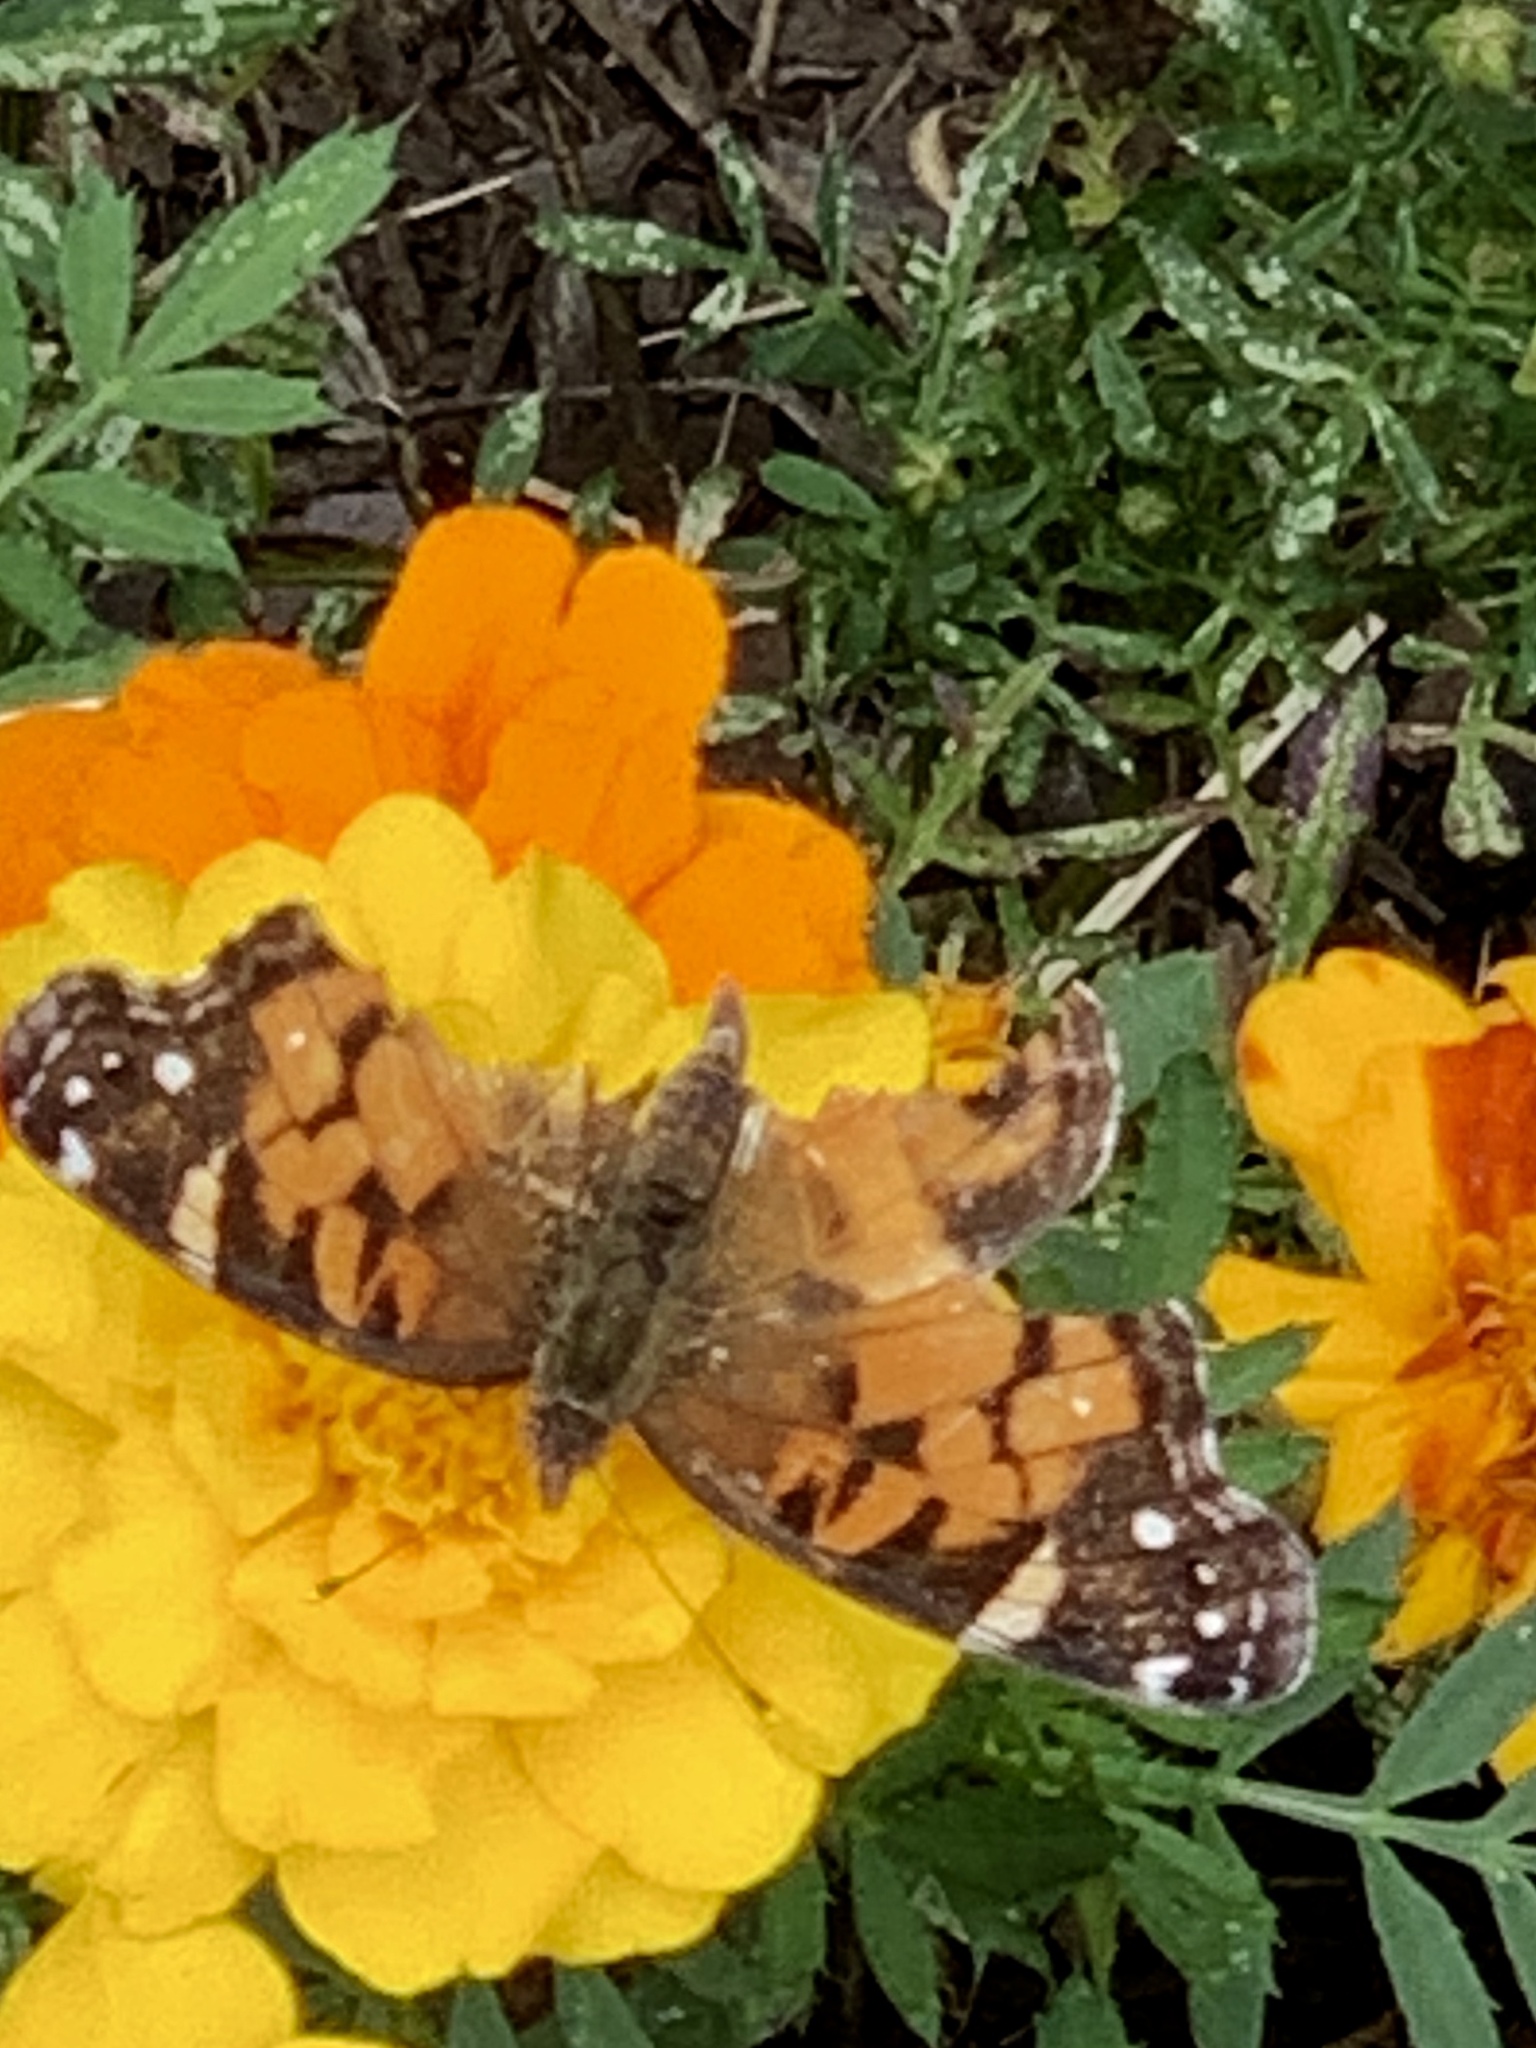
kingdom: Animalia
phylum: Arthropoda
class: Insecta
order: Lepidoptera
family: Nymphalidae
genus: Vanessa
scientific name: Vanessa virginiensis
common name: American lady
